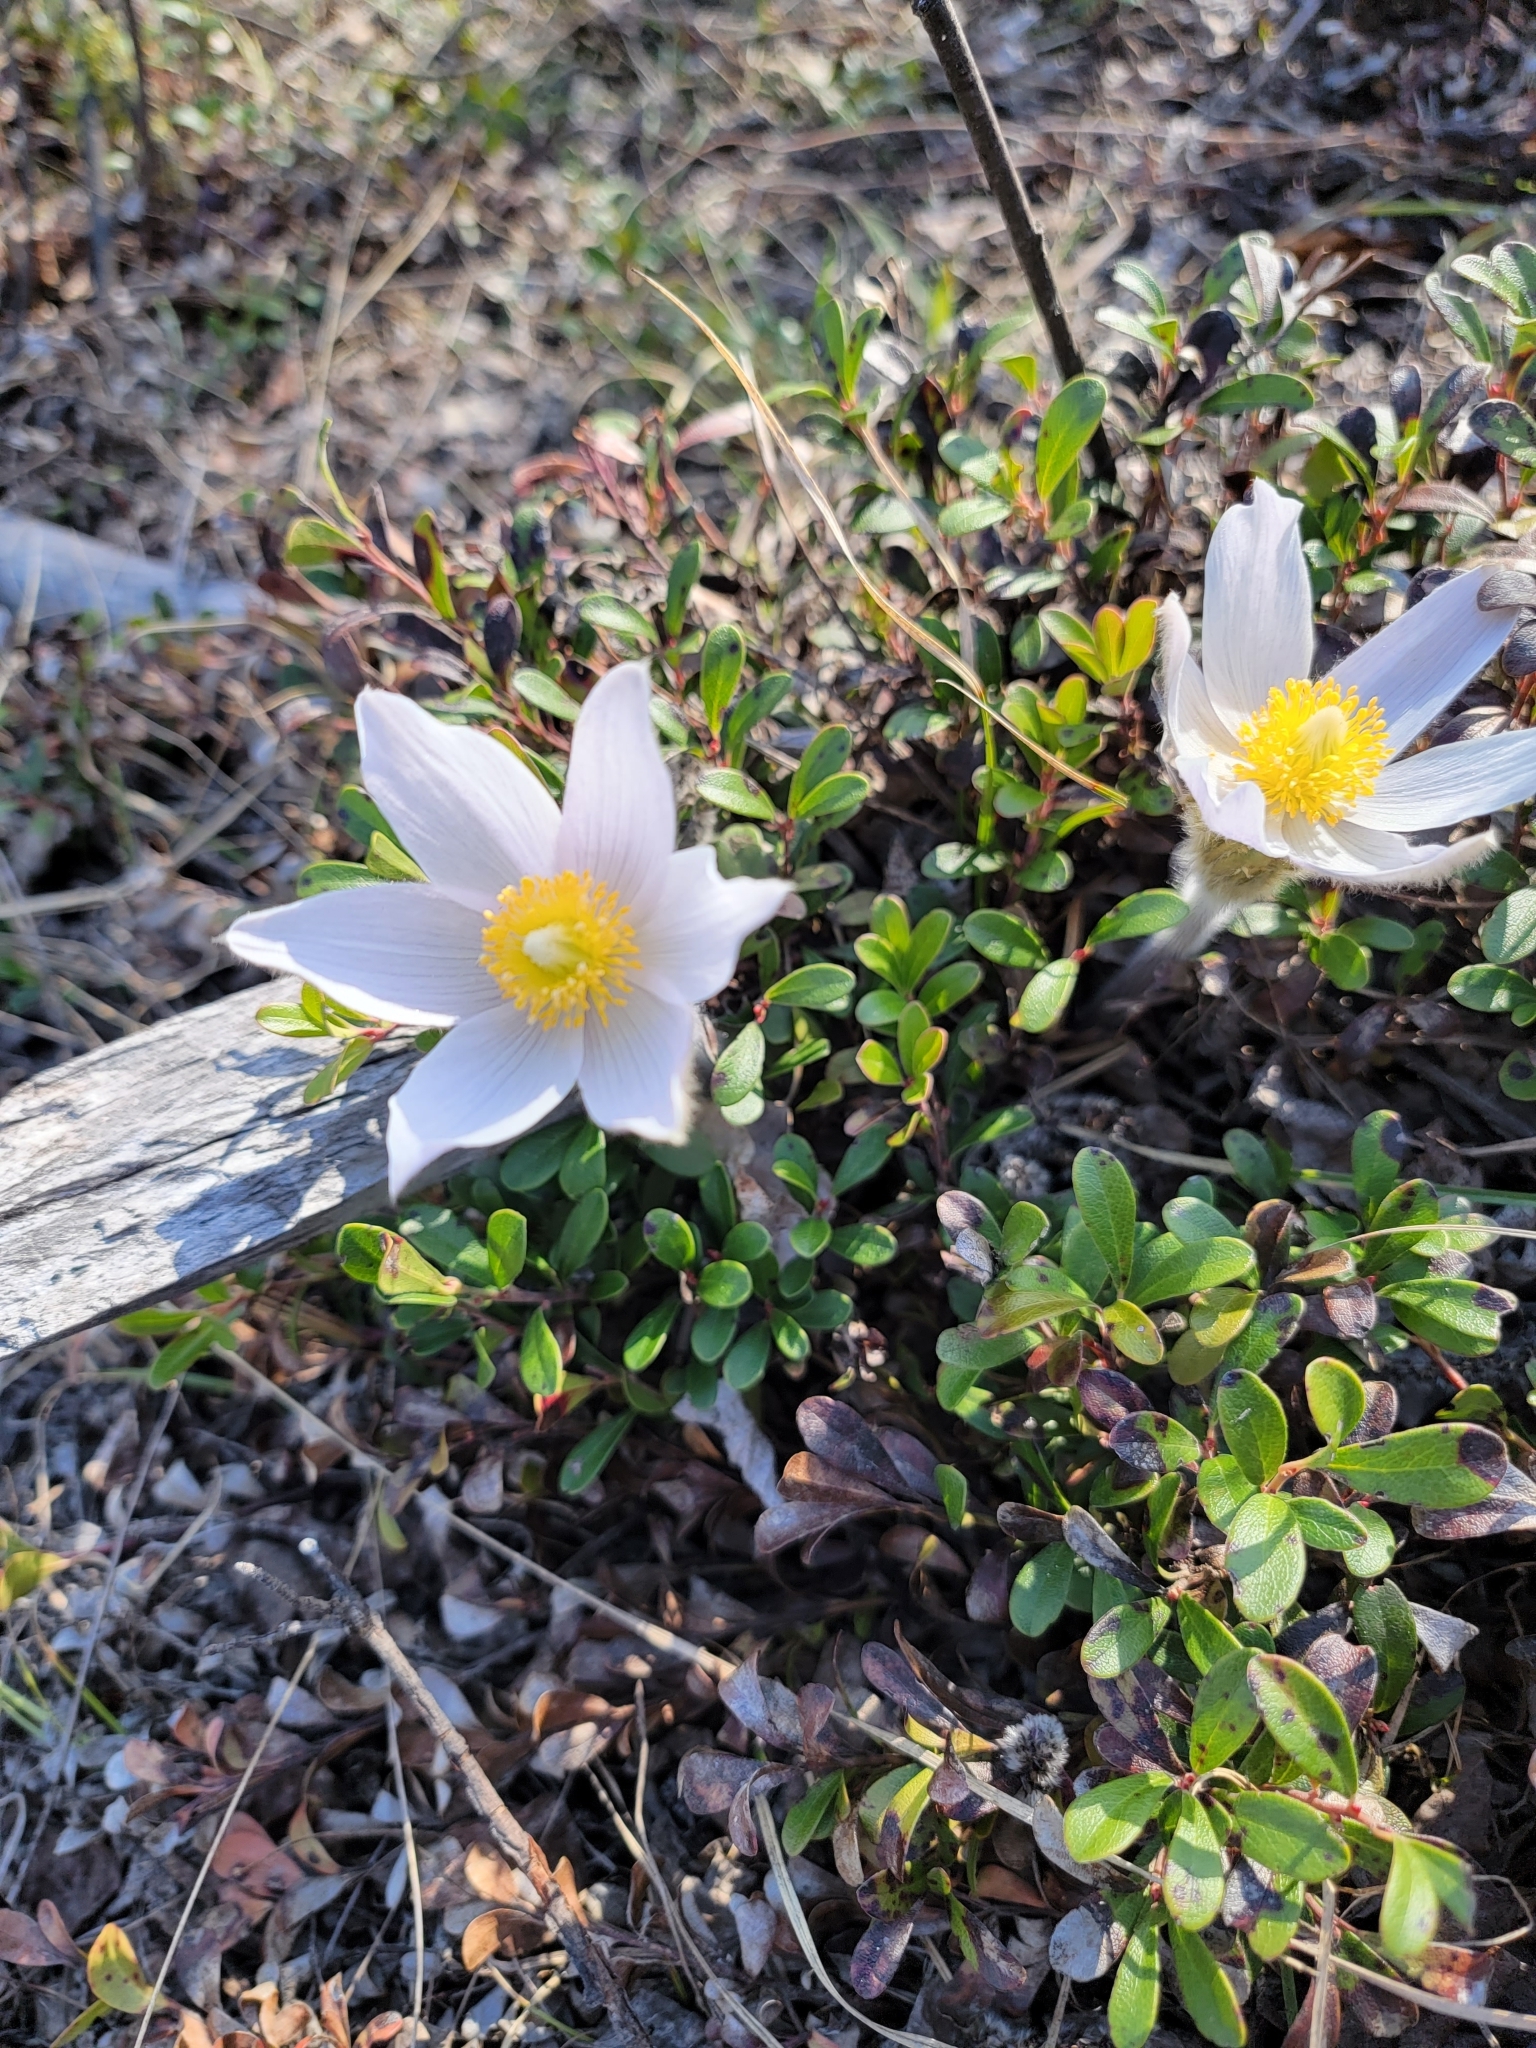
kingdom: Plantae
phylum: Tracheophyta
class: Magnoliopsida
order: Ranunculales
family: Ranunculaceae
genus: Pulsatilla
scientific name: Pulsatilla nuttalliana
